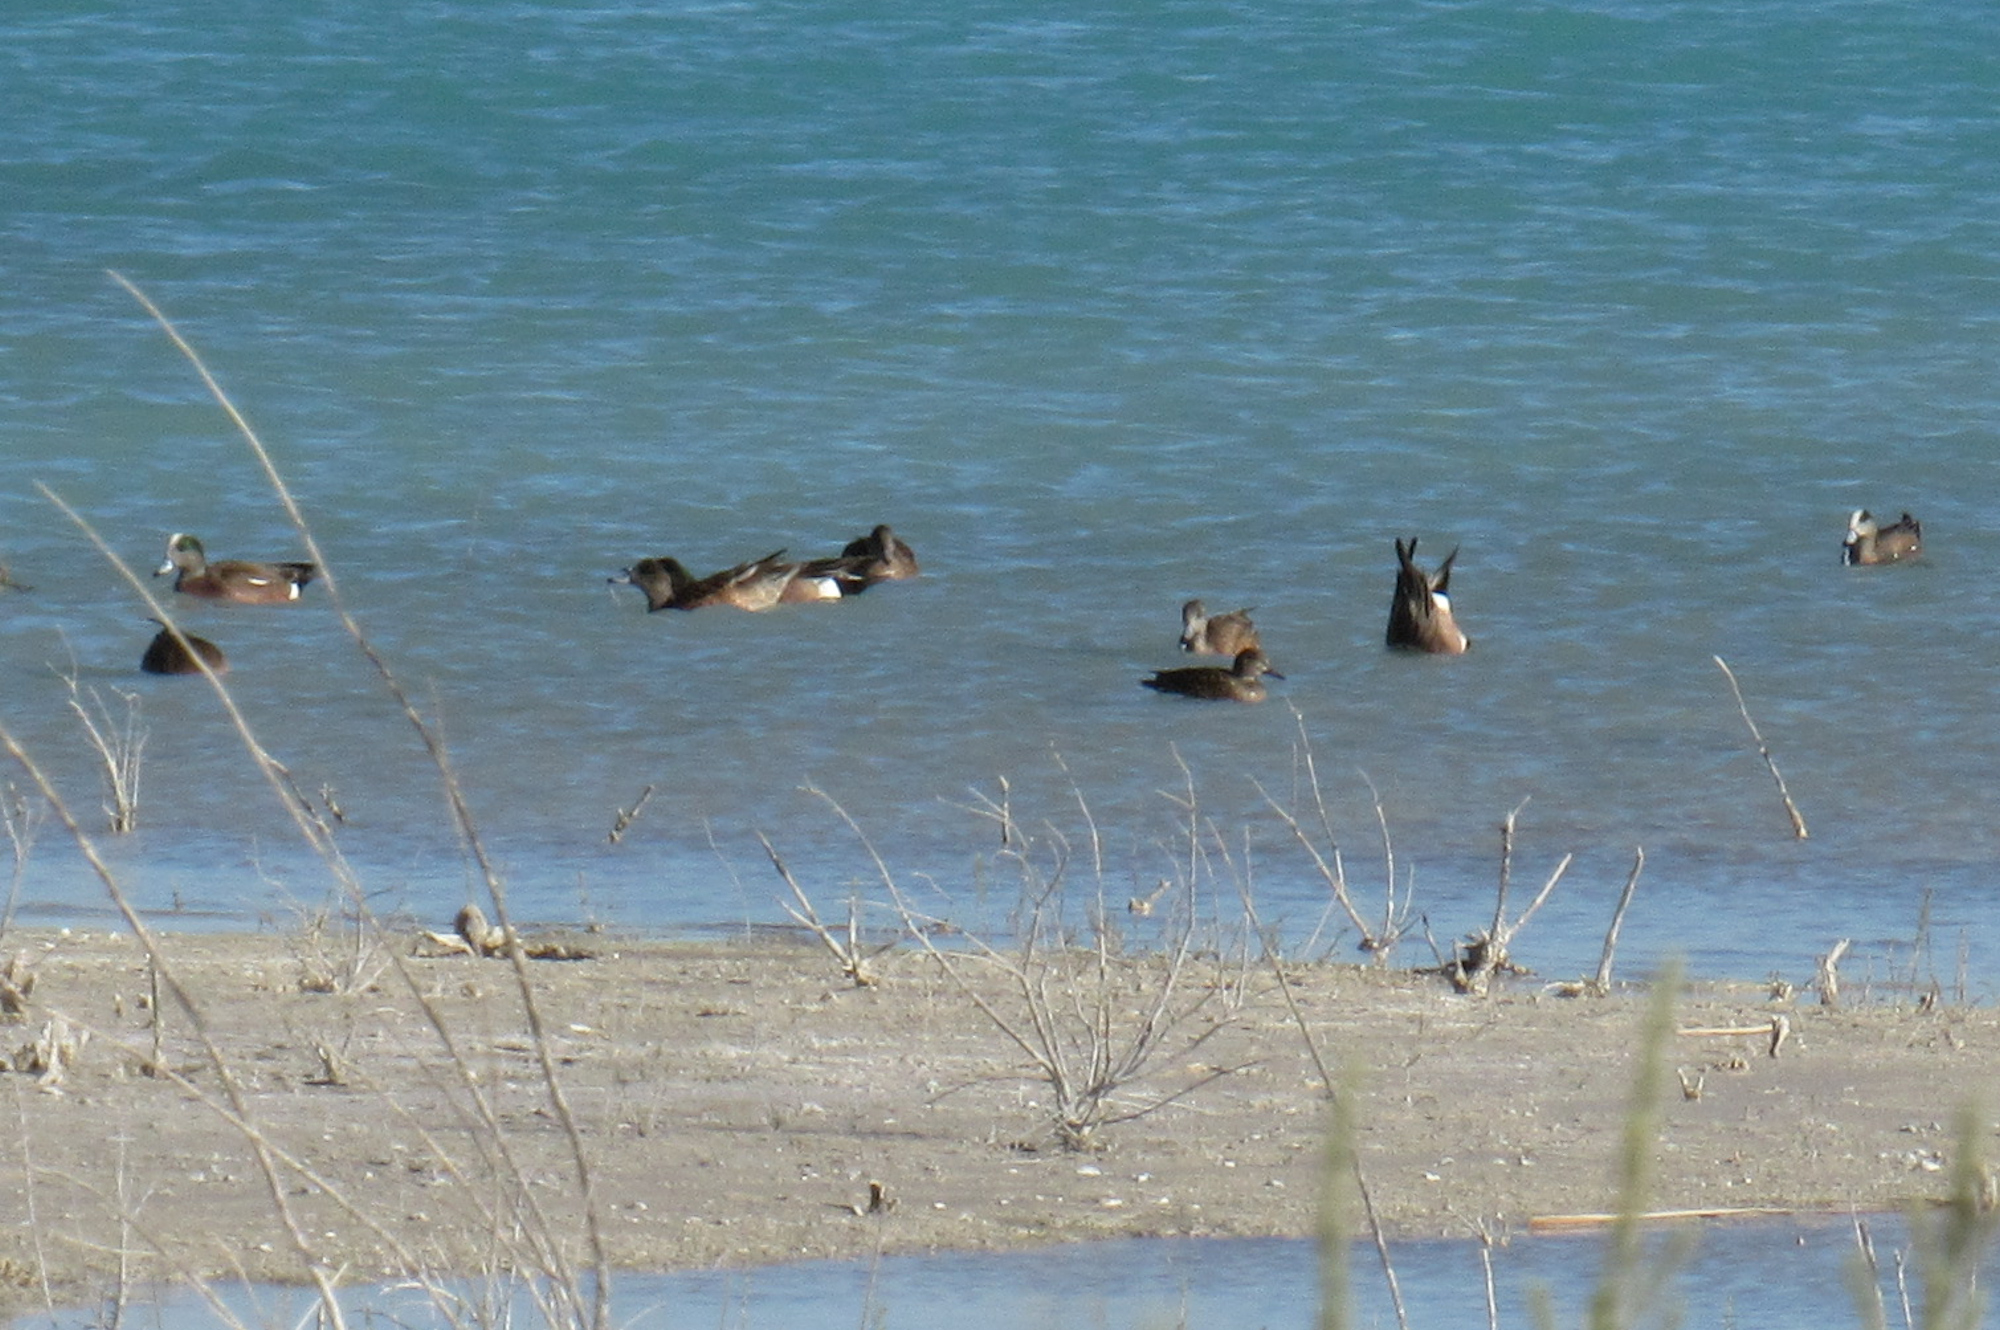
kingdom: Animalia
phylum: Chordata
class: Aves
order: Anseriformes
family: Anatidae
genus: Mareca
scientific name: Mareca americana
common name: American wigeon
